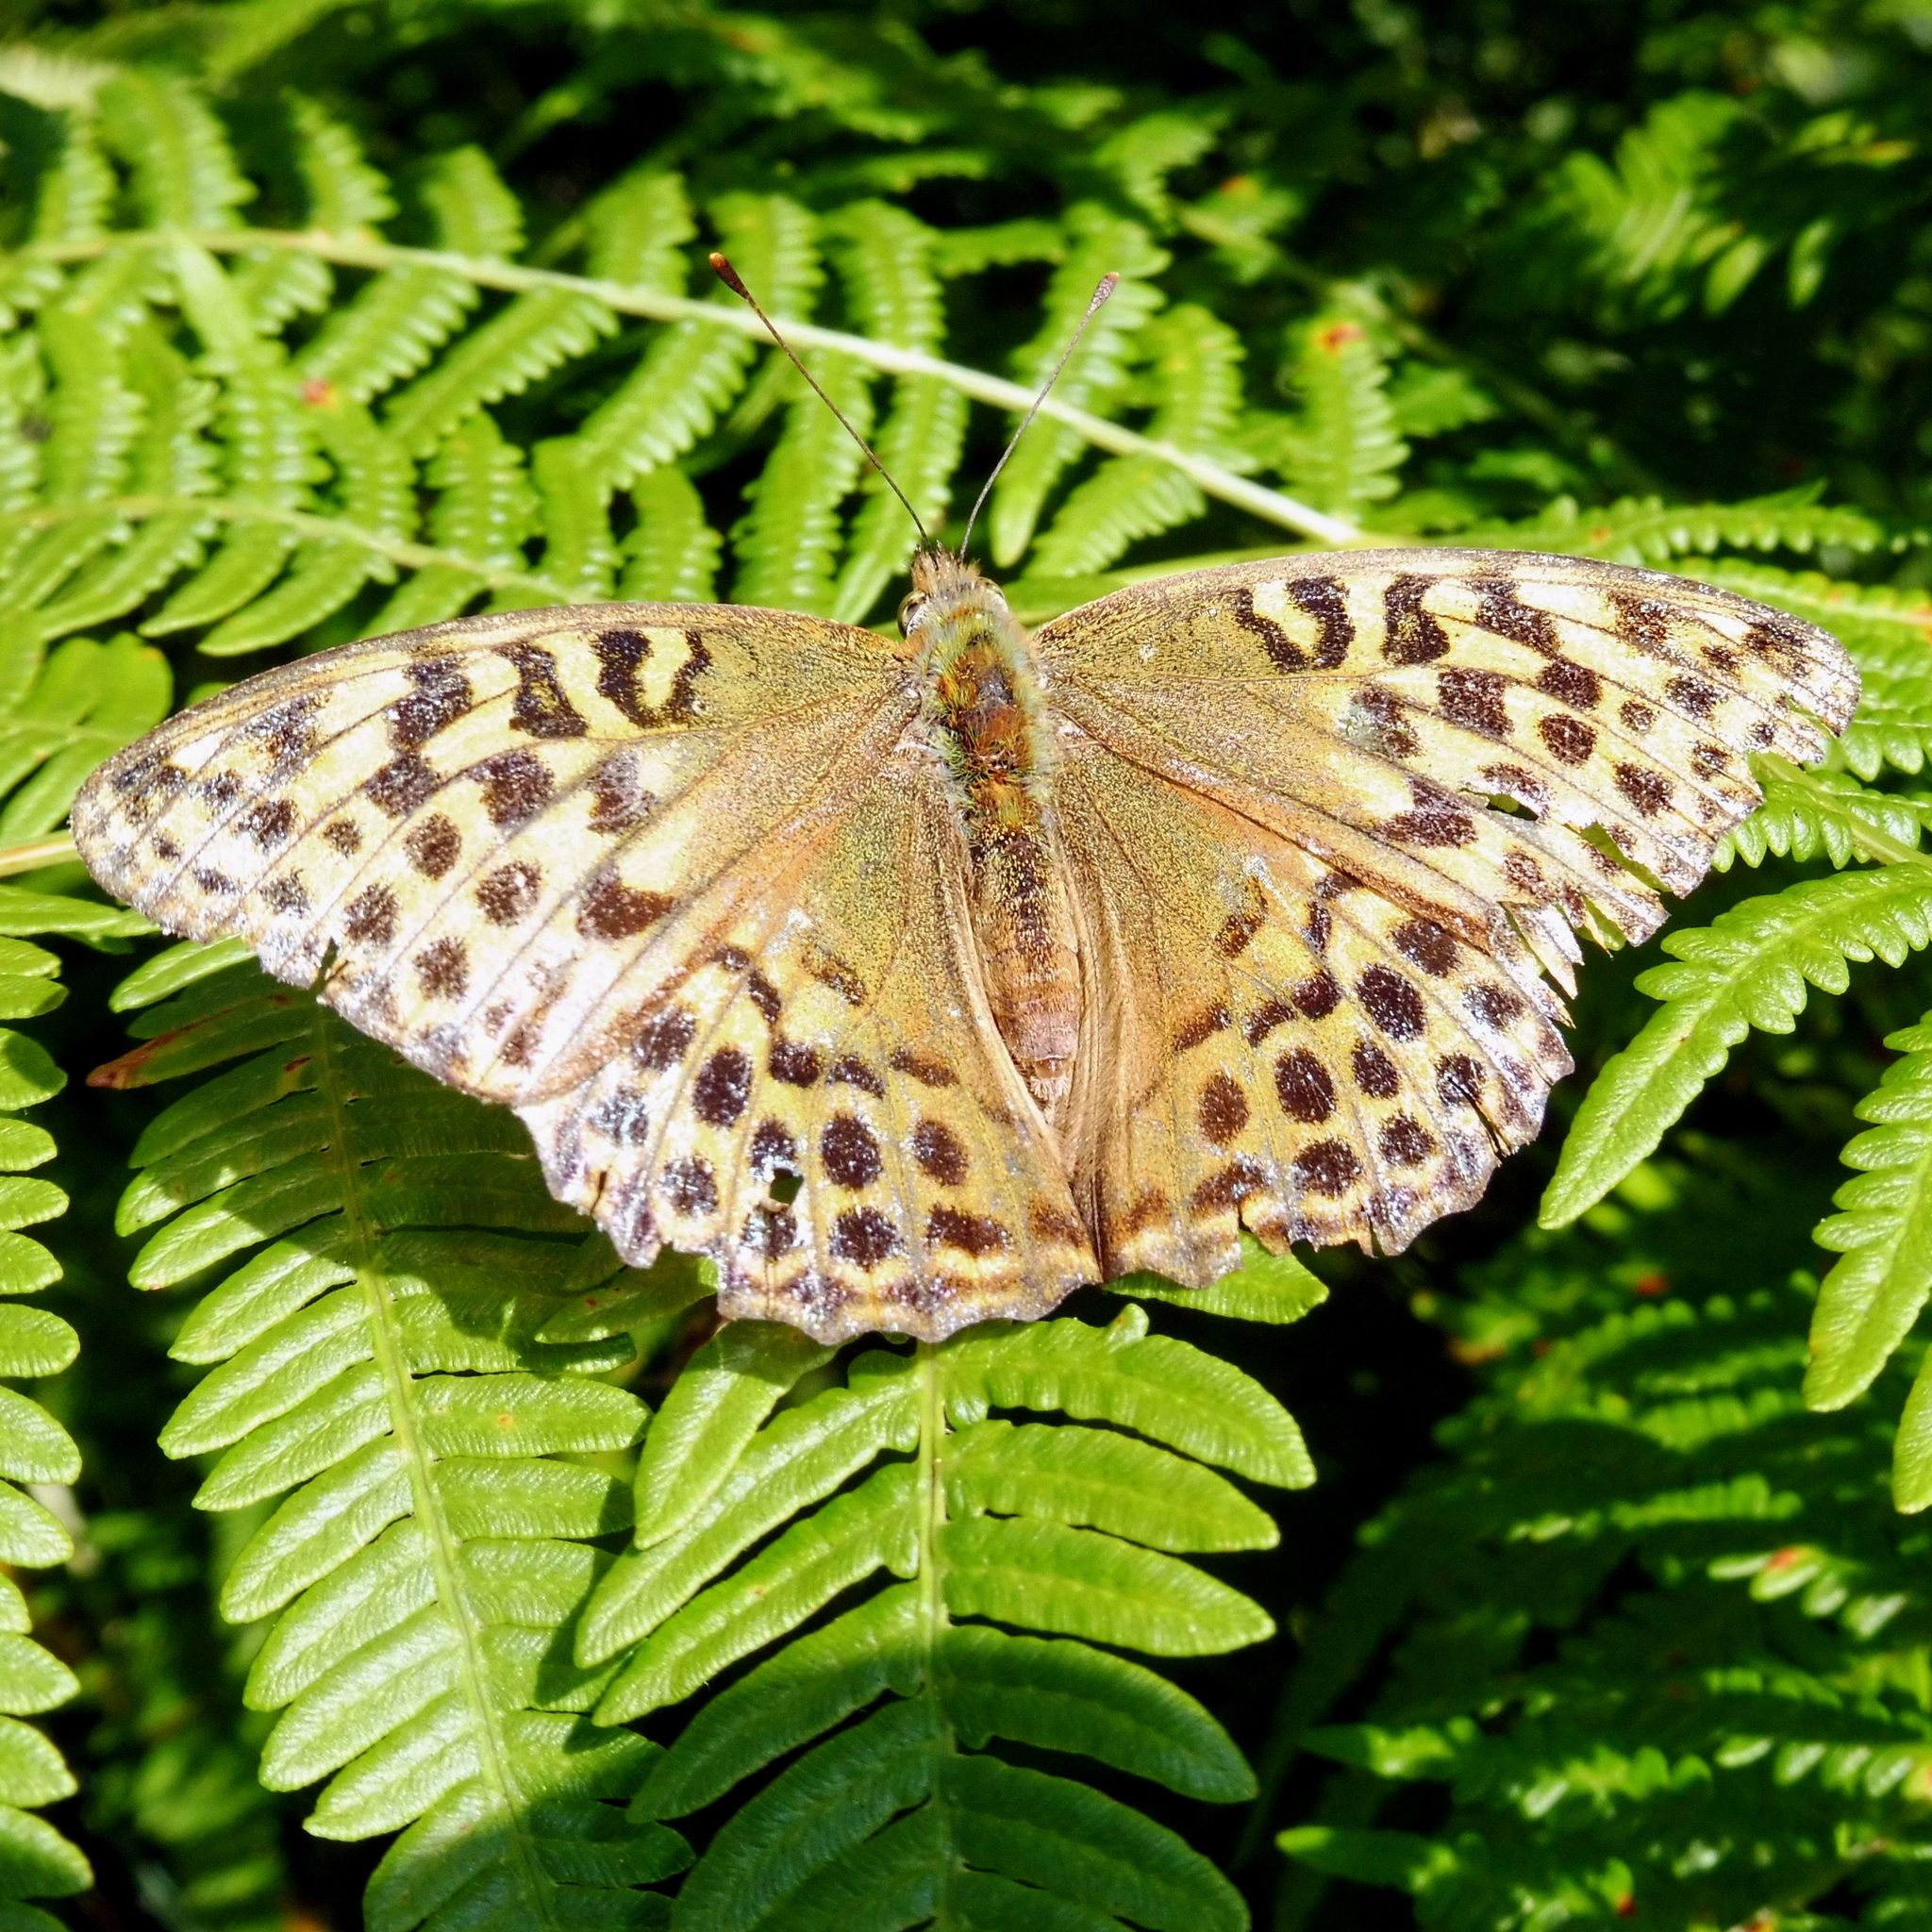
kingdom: Animalia
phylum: Arthropoda
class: Insecta
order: Lepidoptera
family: Nymphalidae
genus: Argynnis
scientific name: Argynnis paphia
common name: Silver-washed fritillary
